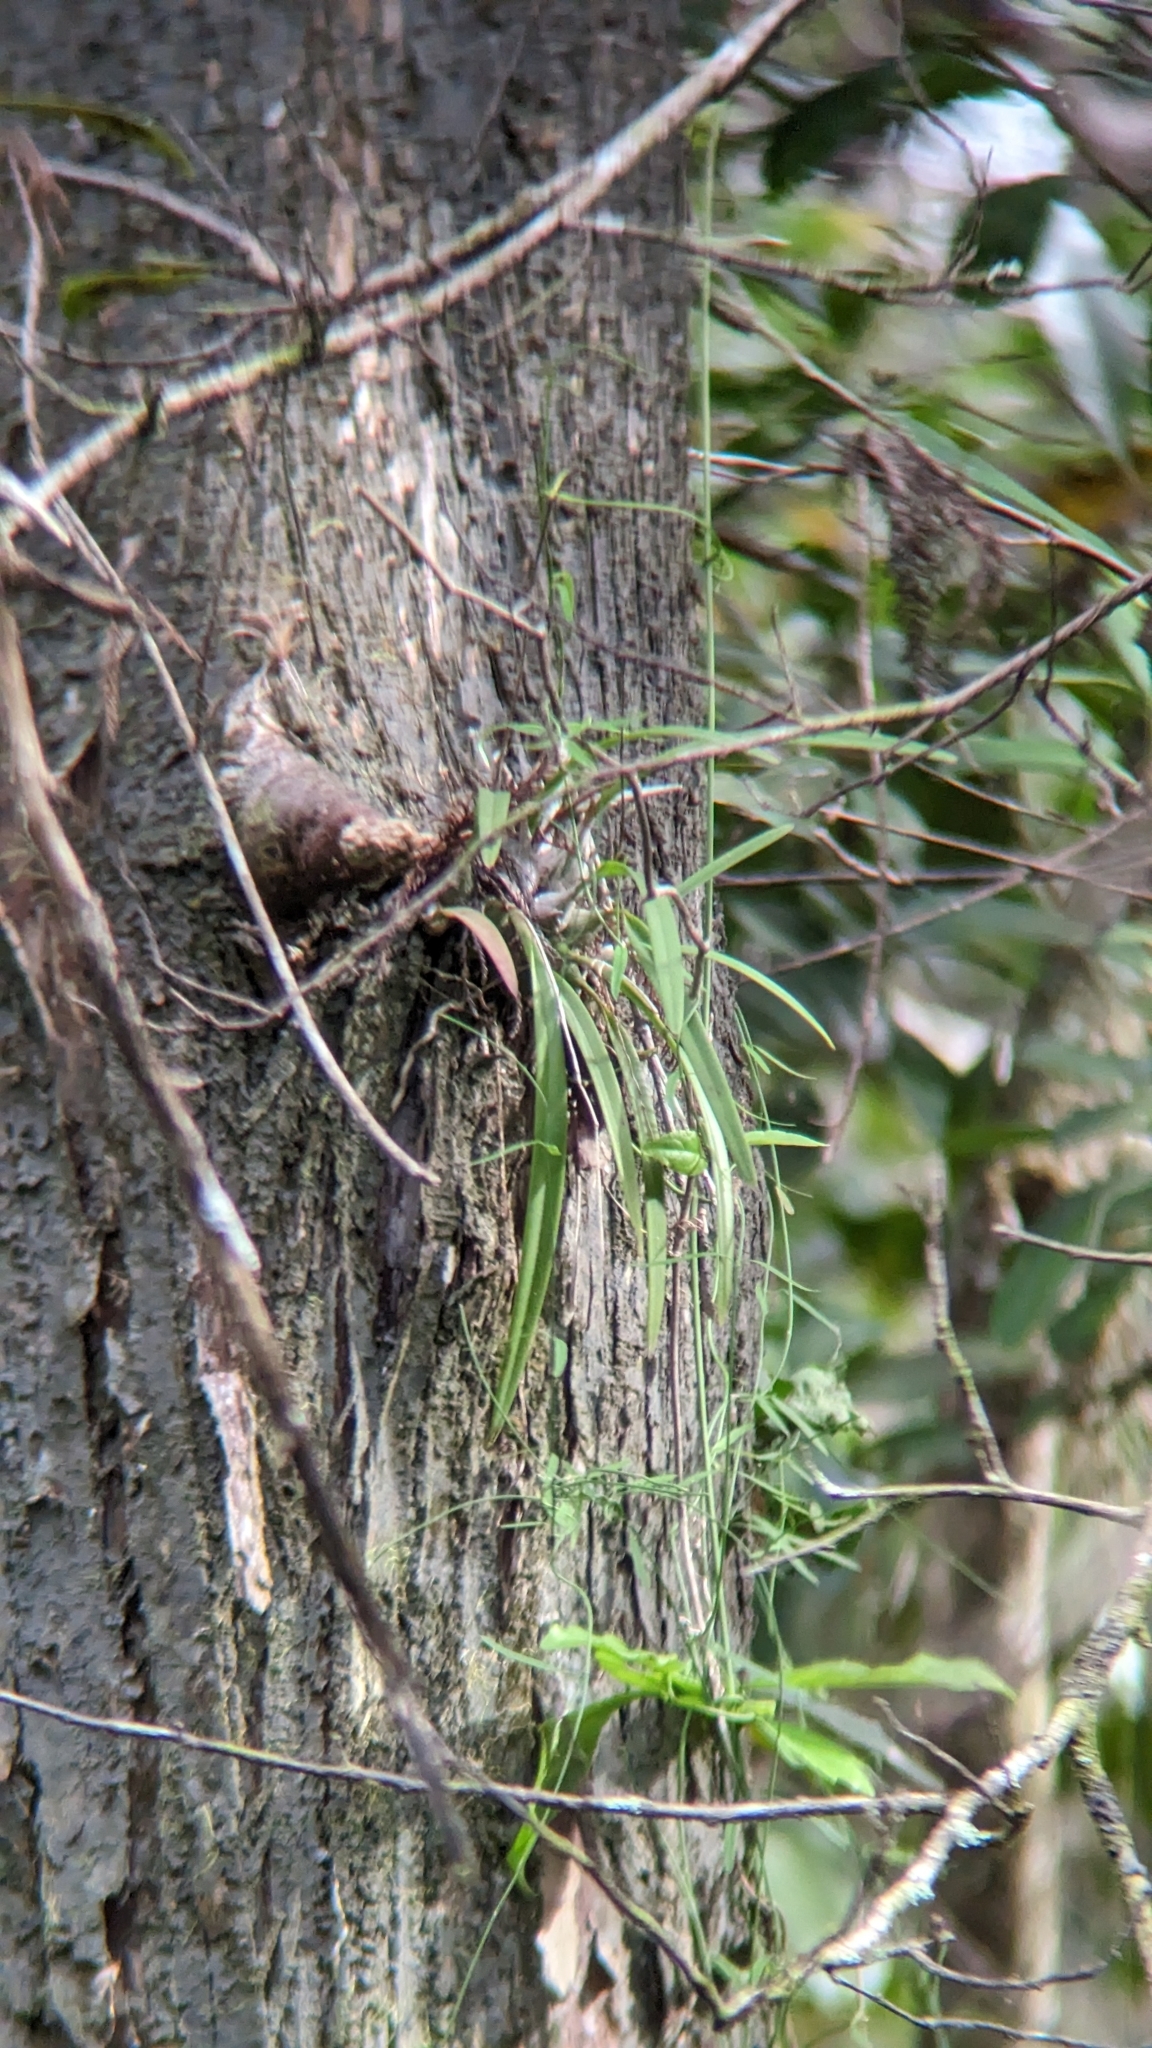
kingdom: Plantae
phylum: Tracheophyta
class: Liliopsida
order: Asparagales
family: Orchidaceae
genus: Encyclia
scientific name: Encyclia tampensis
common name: Florida butterfly orchid
